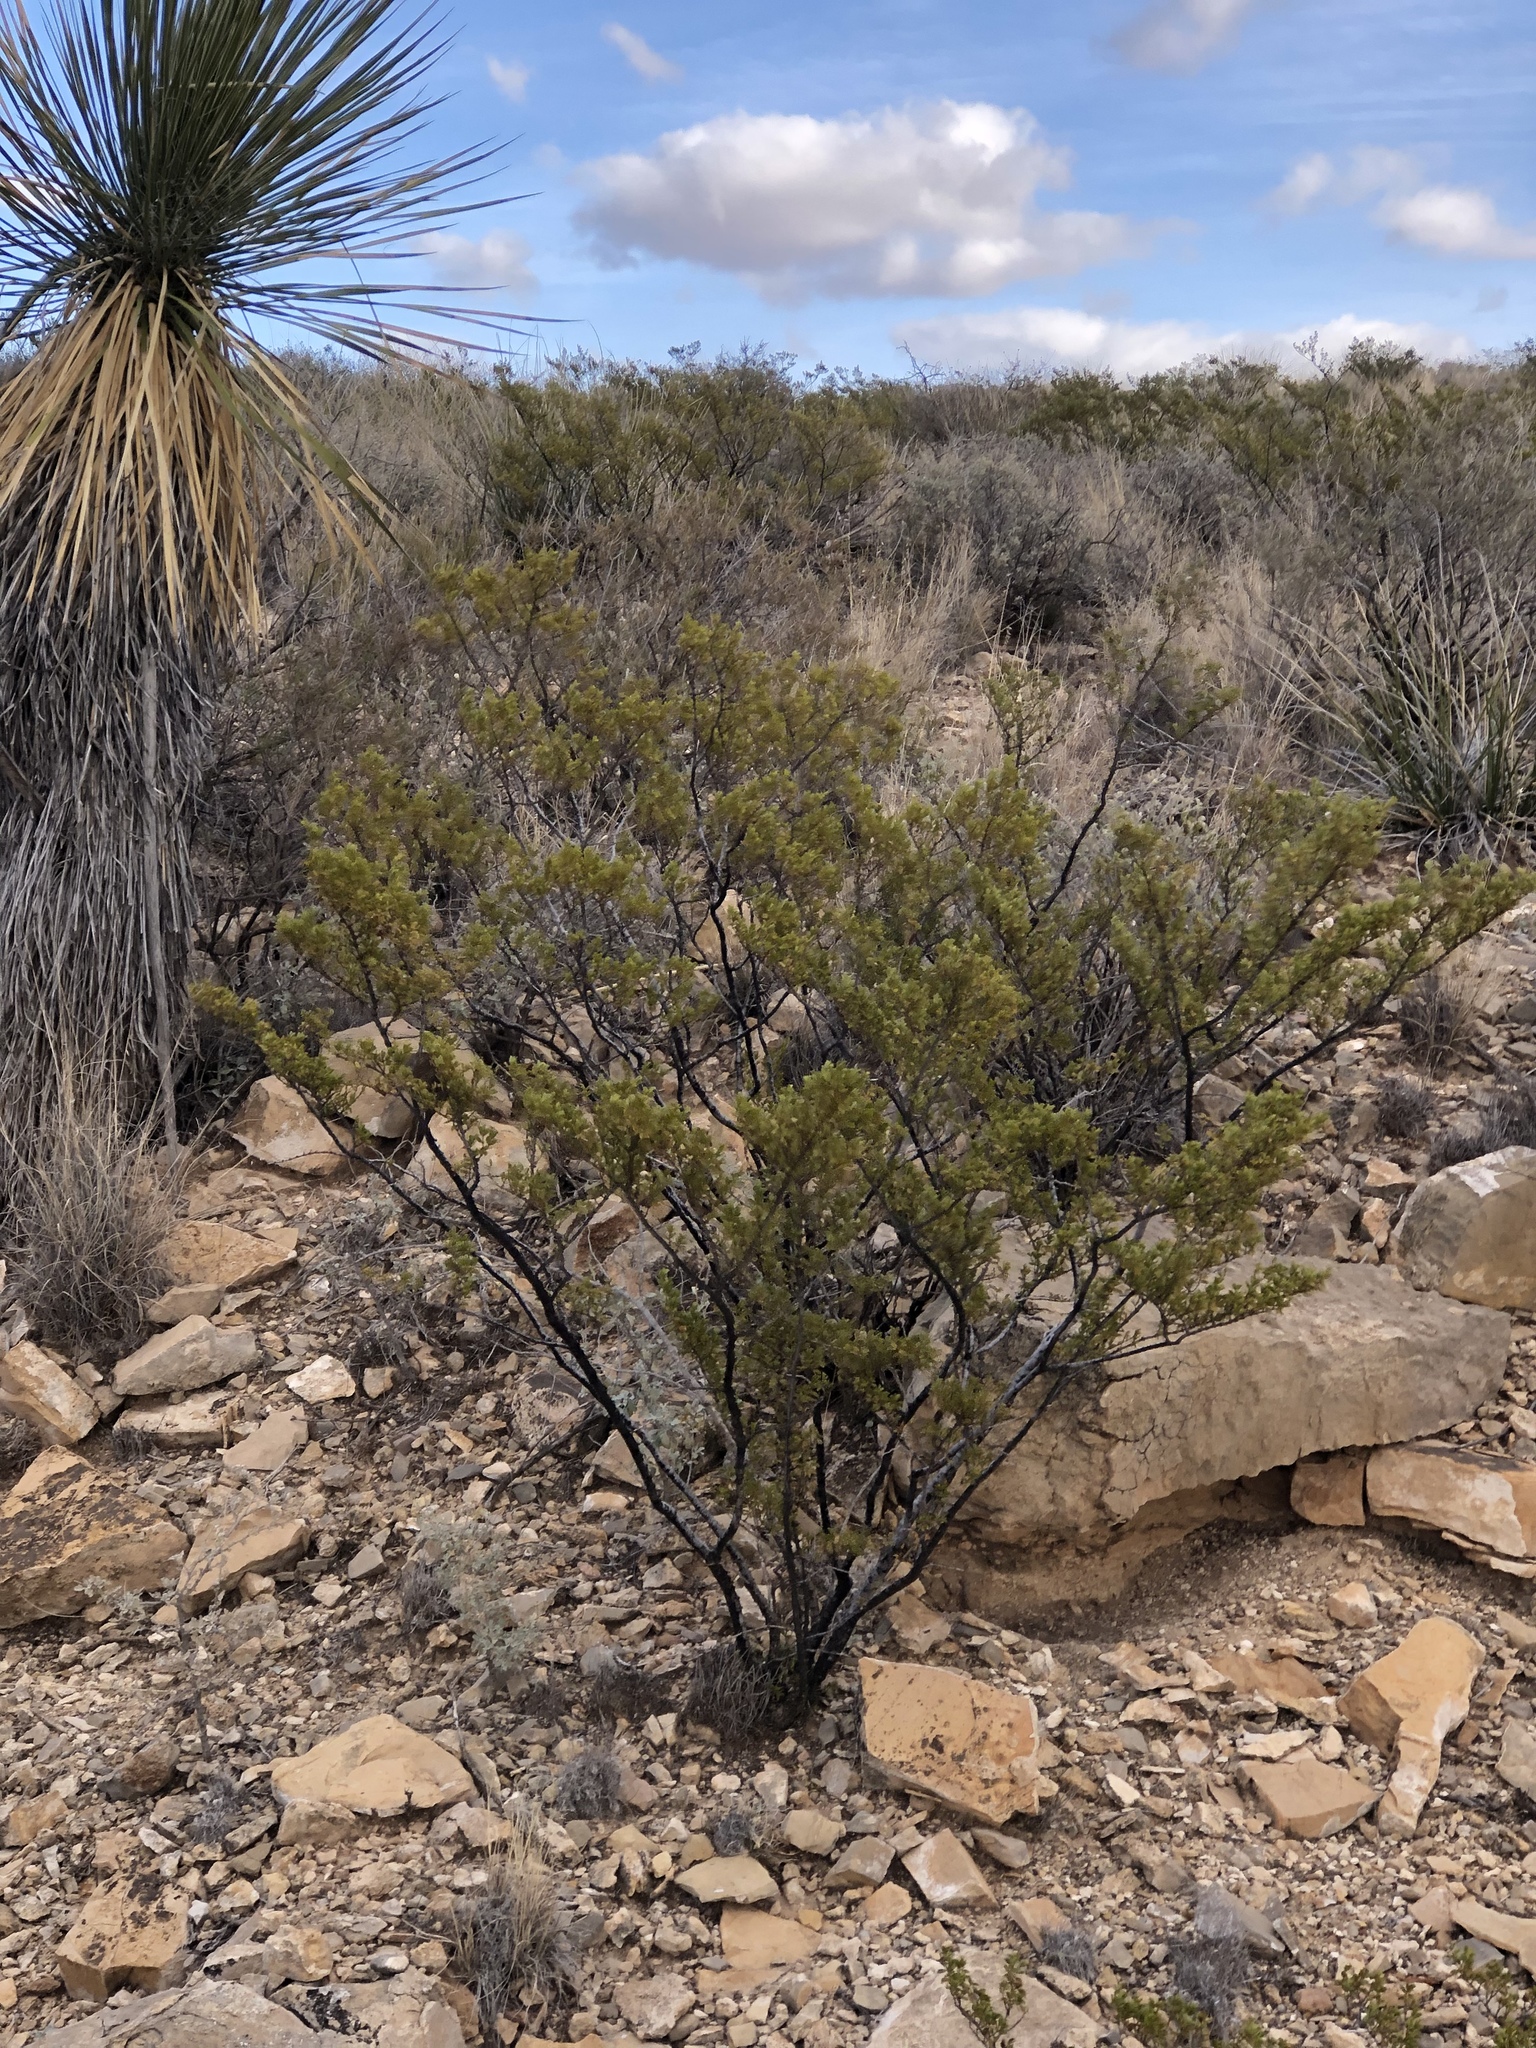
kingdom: Plantae
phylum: Tracheophyta
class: Magnoliopsida
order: Zygophyllales
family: Zygophyllaceae
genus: Larrea
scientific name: Larrea tridentata
